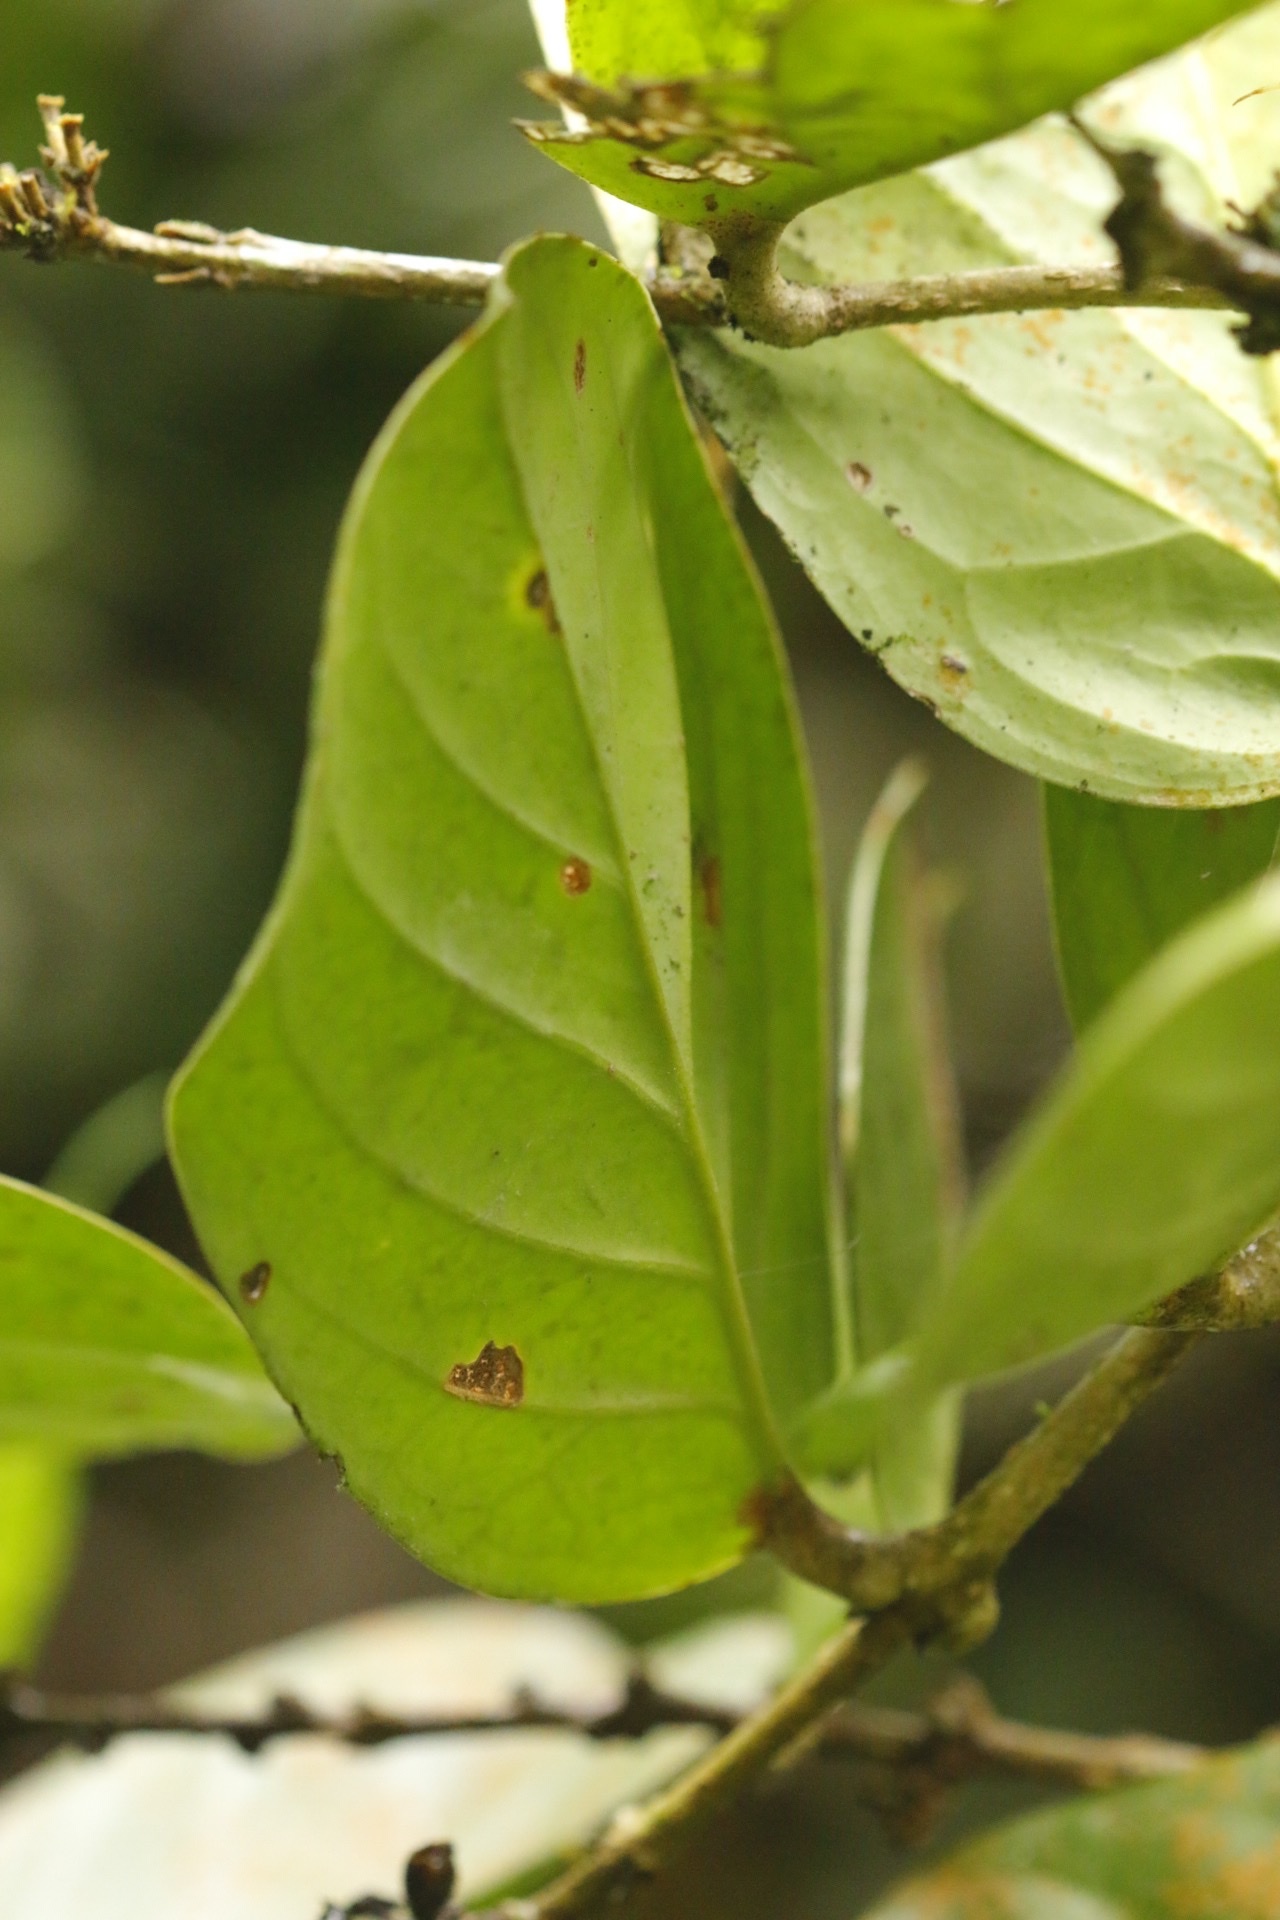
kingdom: Plantae
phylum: Tracheophyta
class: Magnoliopsida
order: Lamiales
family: Schlegeliaceae
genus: Schlegelia
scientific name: Schlegelia darienensis
